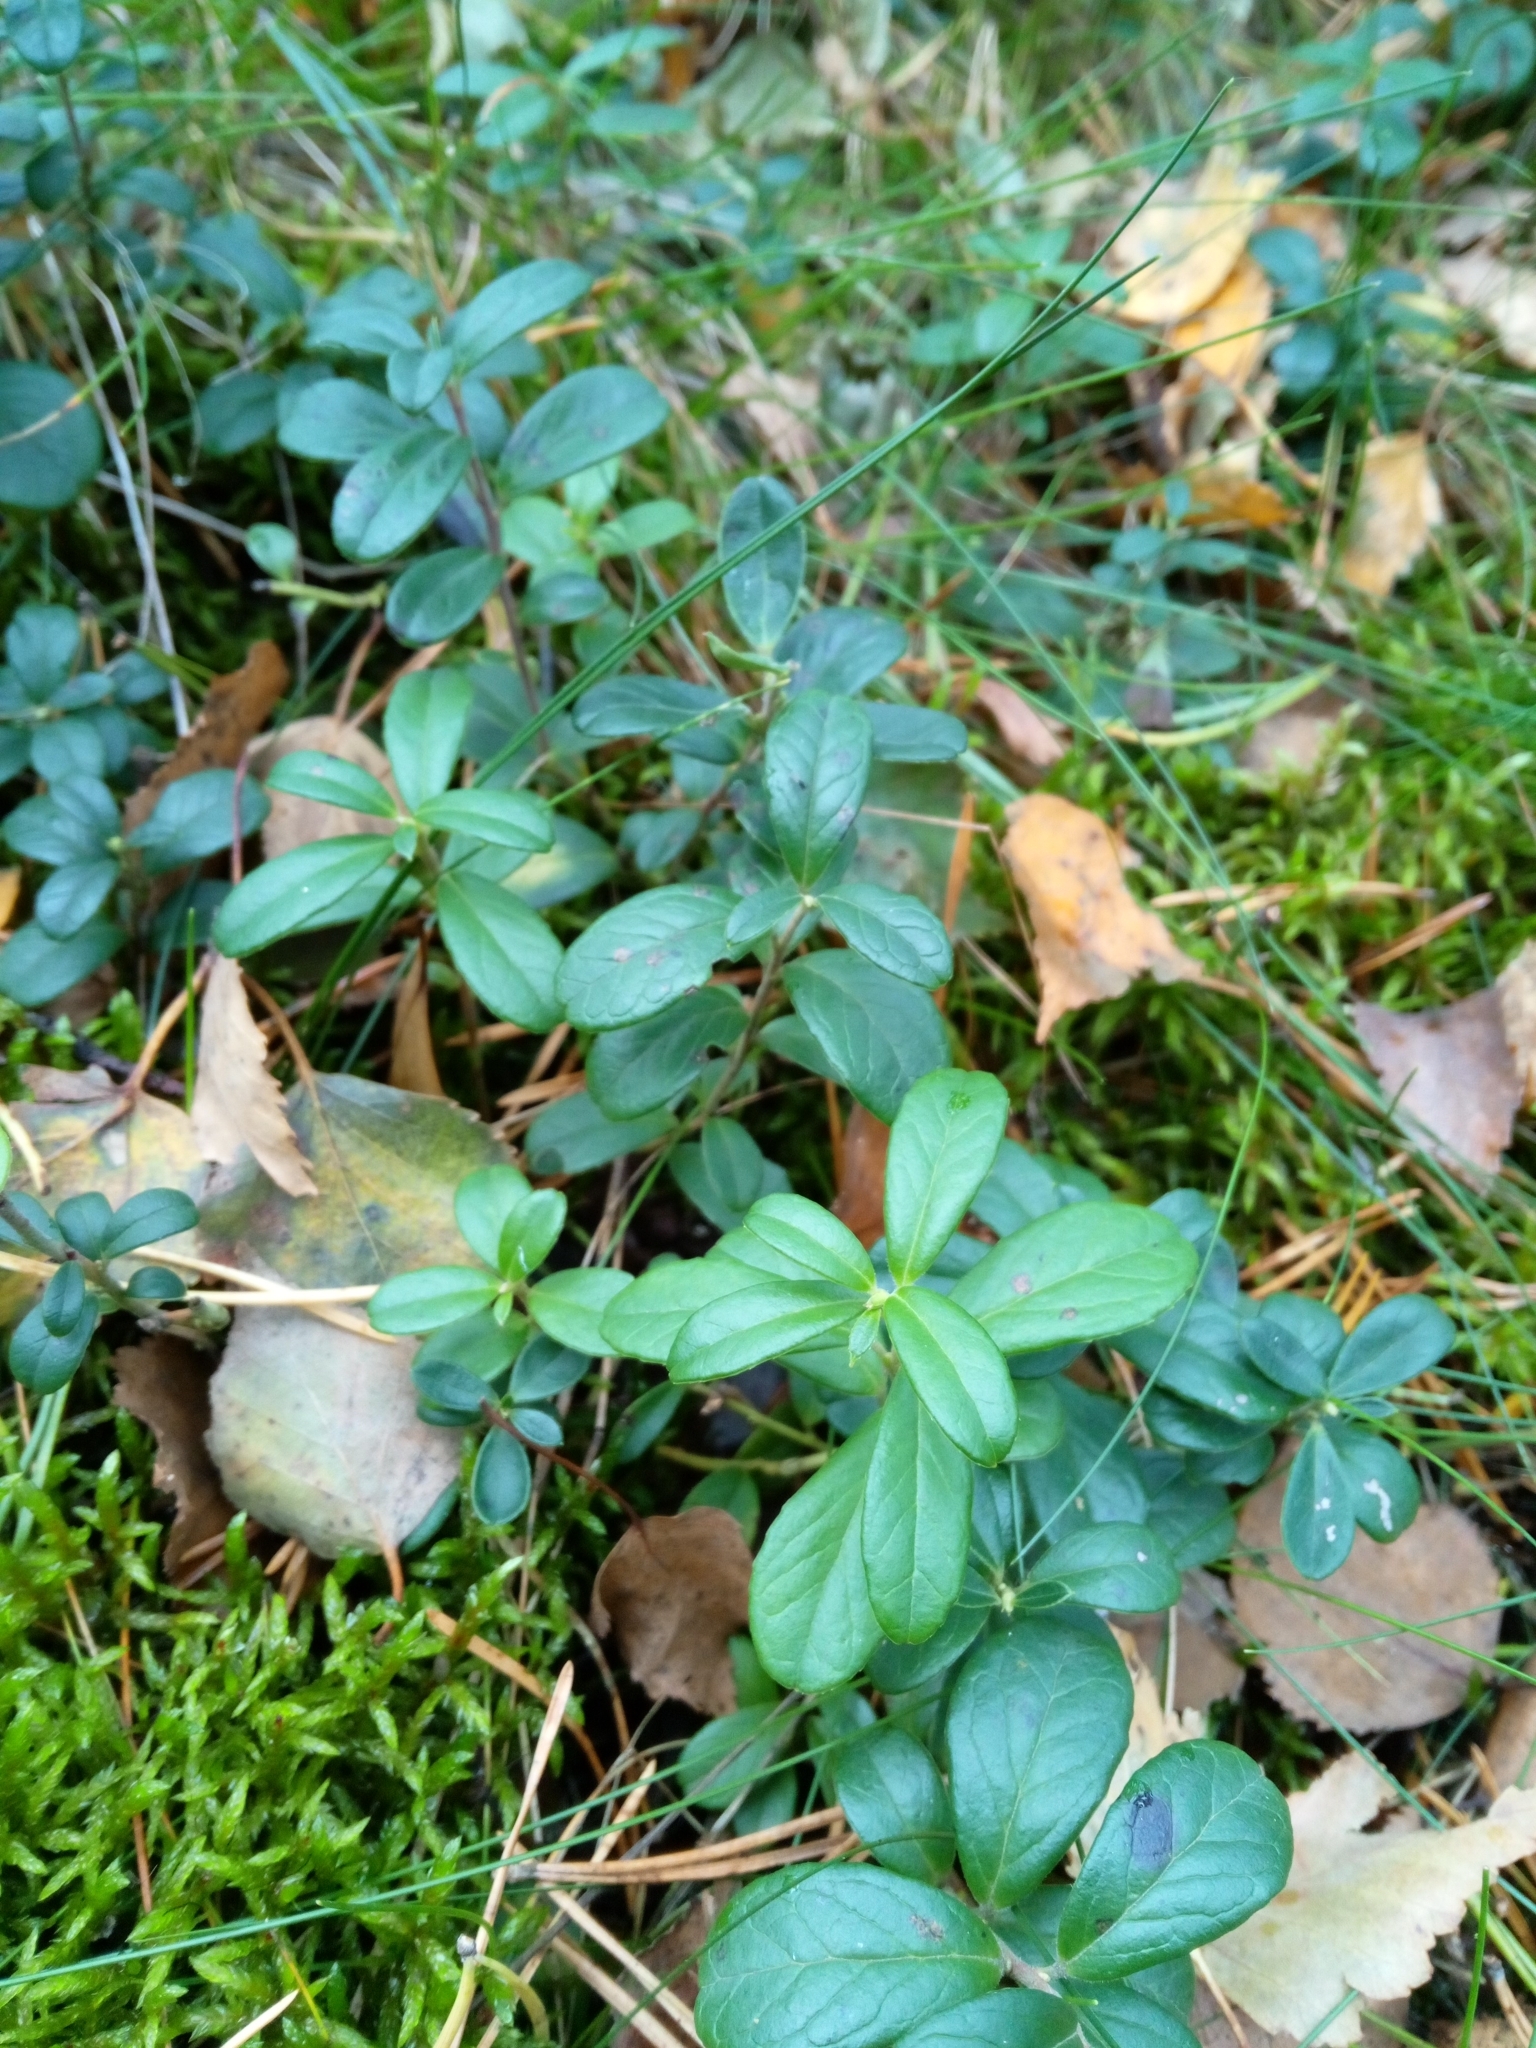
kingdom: Plantae
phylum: Tracheophyta
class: Magnoliopsida
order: Ericales
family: Ericaceae
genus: Vaccinium
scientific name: Vaccinium vitis-idaea
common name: Cowberry
